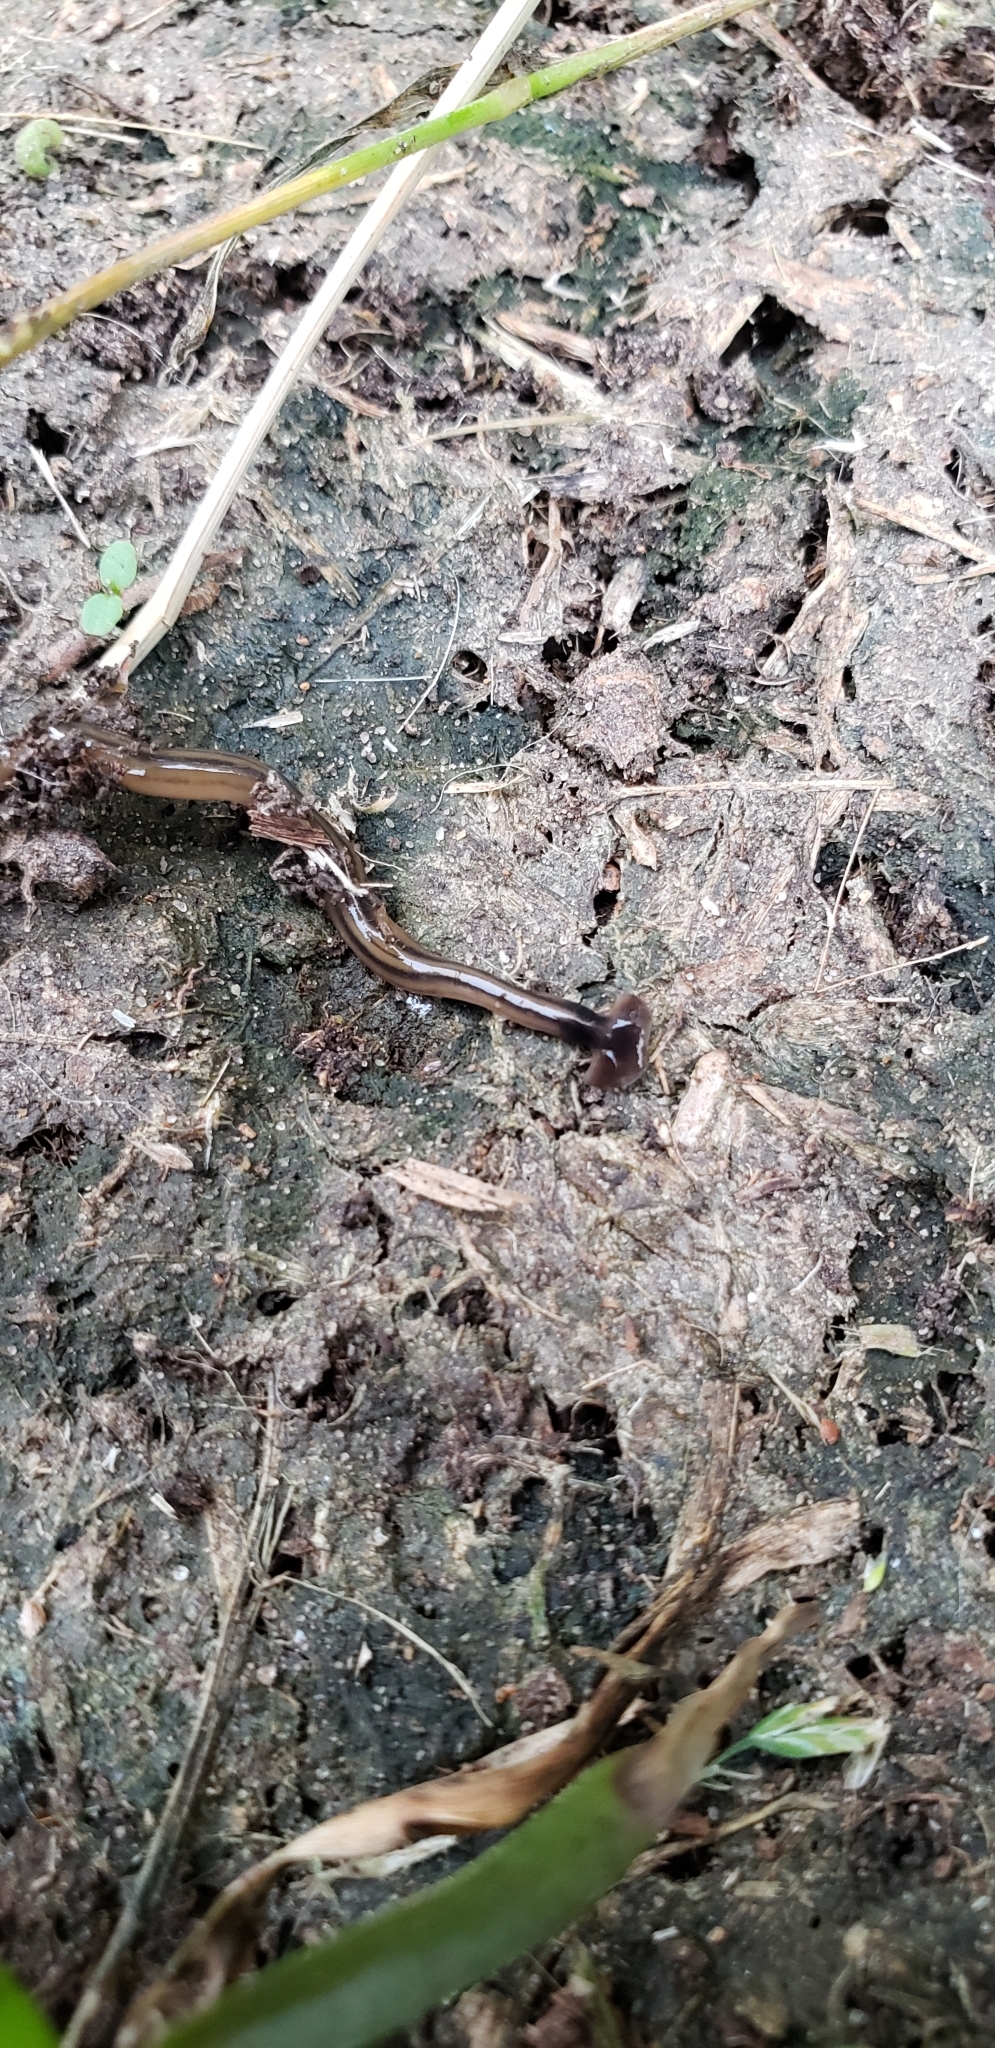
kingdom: Animalia
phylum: Platyhelminthes
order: Tricladida
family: Geoplanidae
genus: Bipalium
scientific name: Bipalium kewense
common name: Hammerhead flatworm
